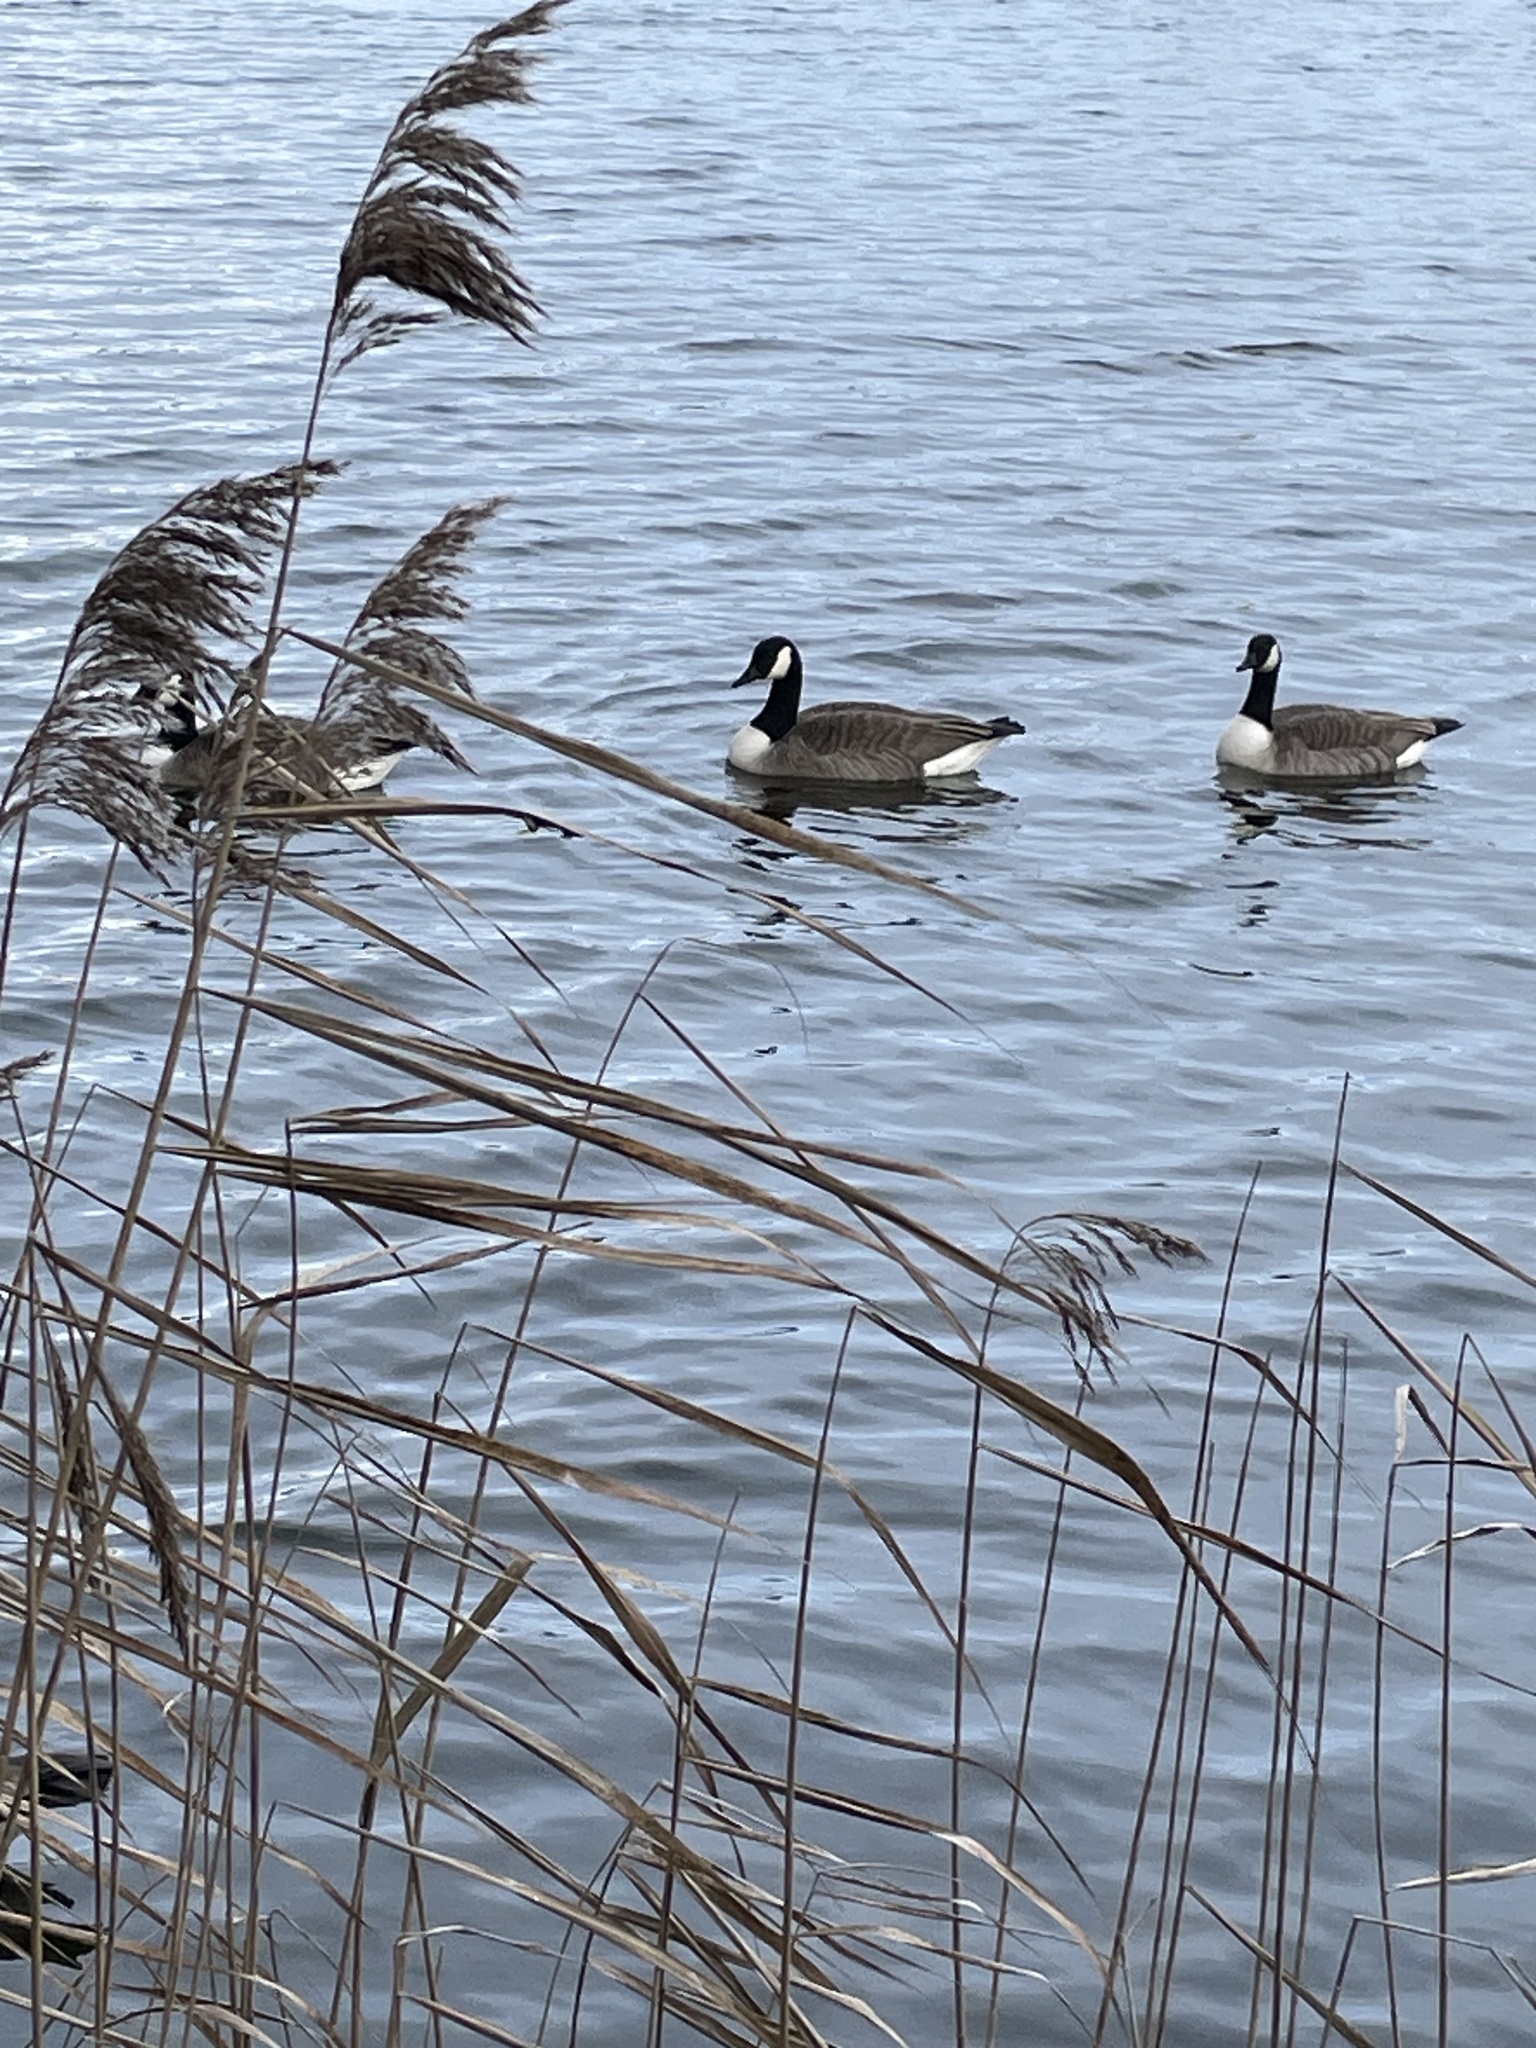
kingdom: Animalia
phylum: Chordata
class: Aves
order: Anseriformes
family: Anatidae
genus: Branta
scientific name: Branta canadensis
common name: Canada goose
